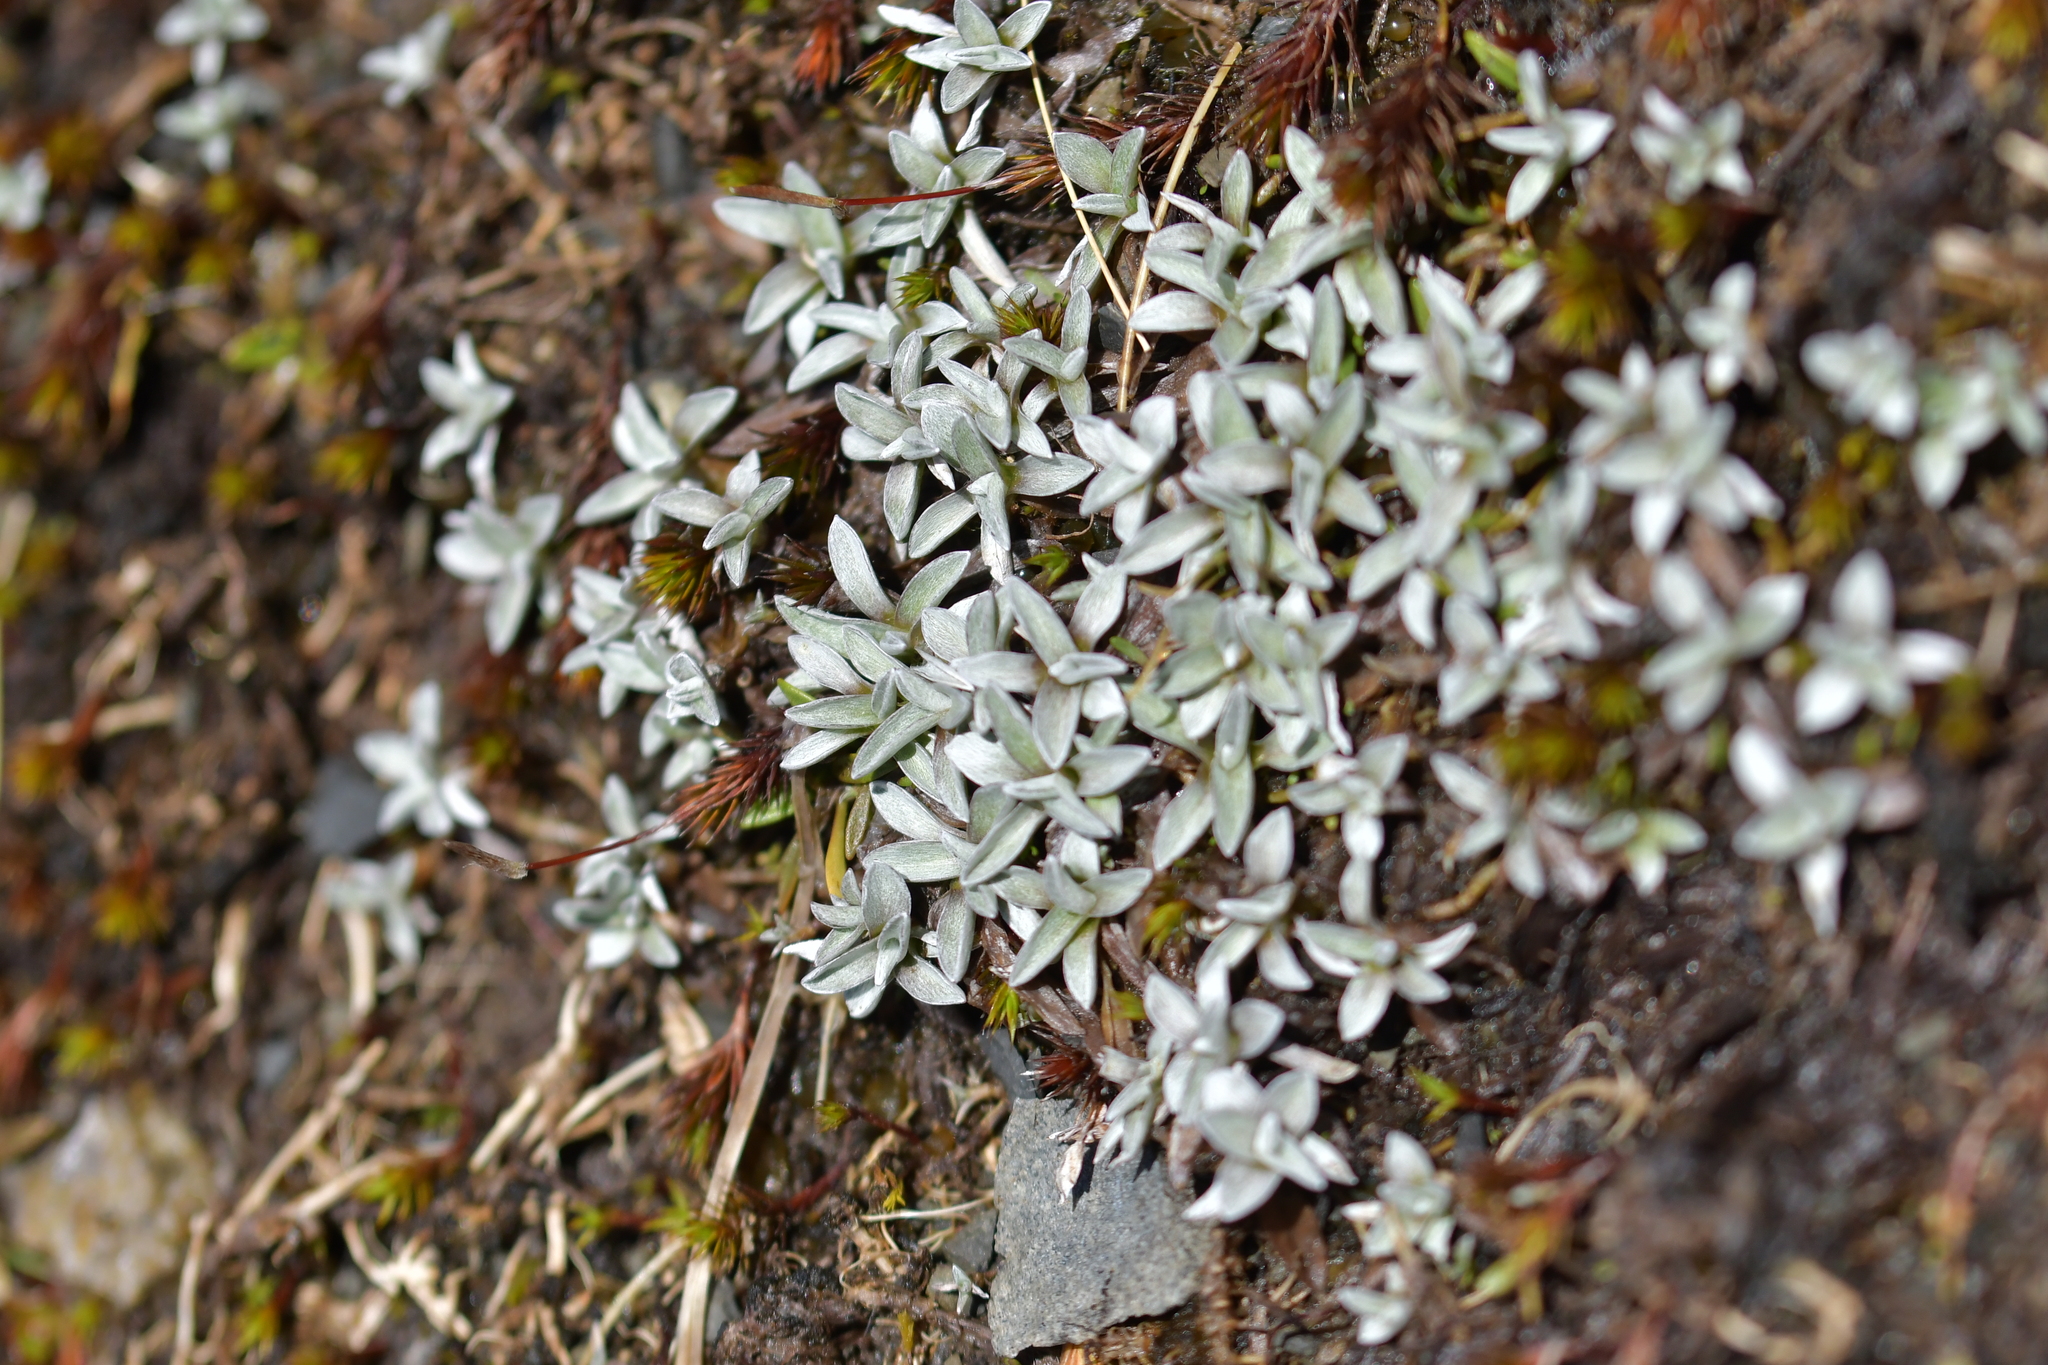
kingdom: Plantae
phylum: Tracheophyta
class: Magnoliopsida
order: Asterales
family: Asteraceae
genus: Euchiton
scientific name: Euchiton traversii
